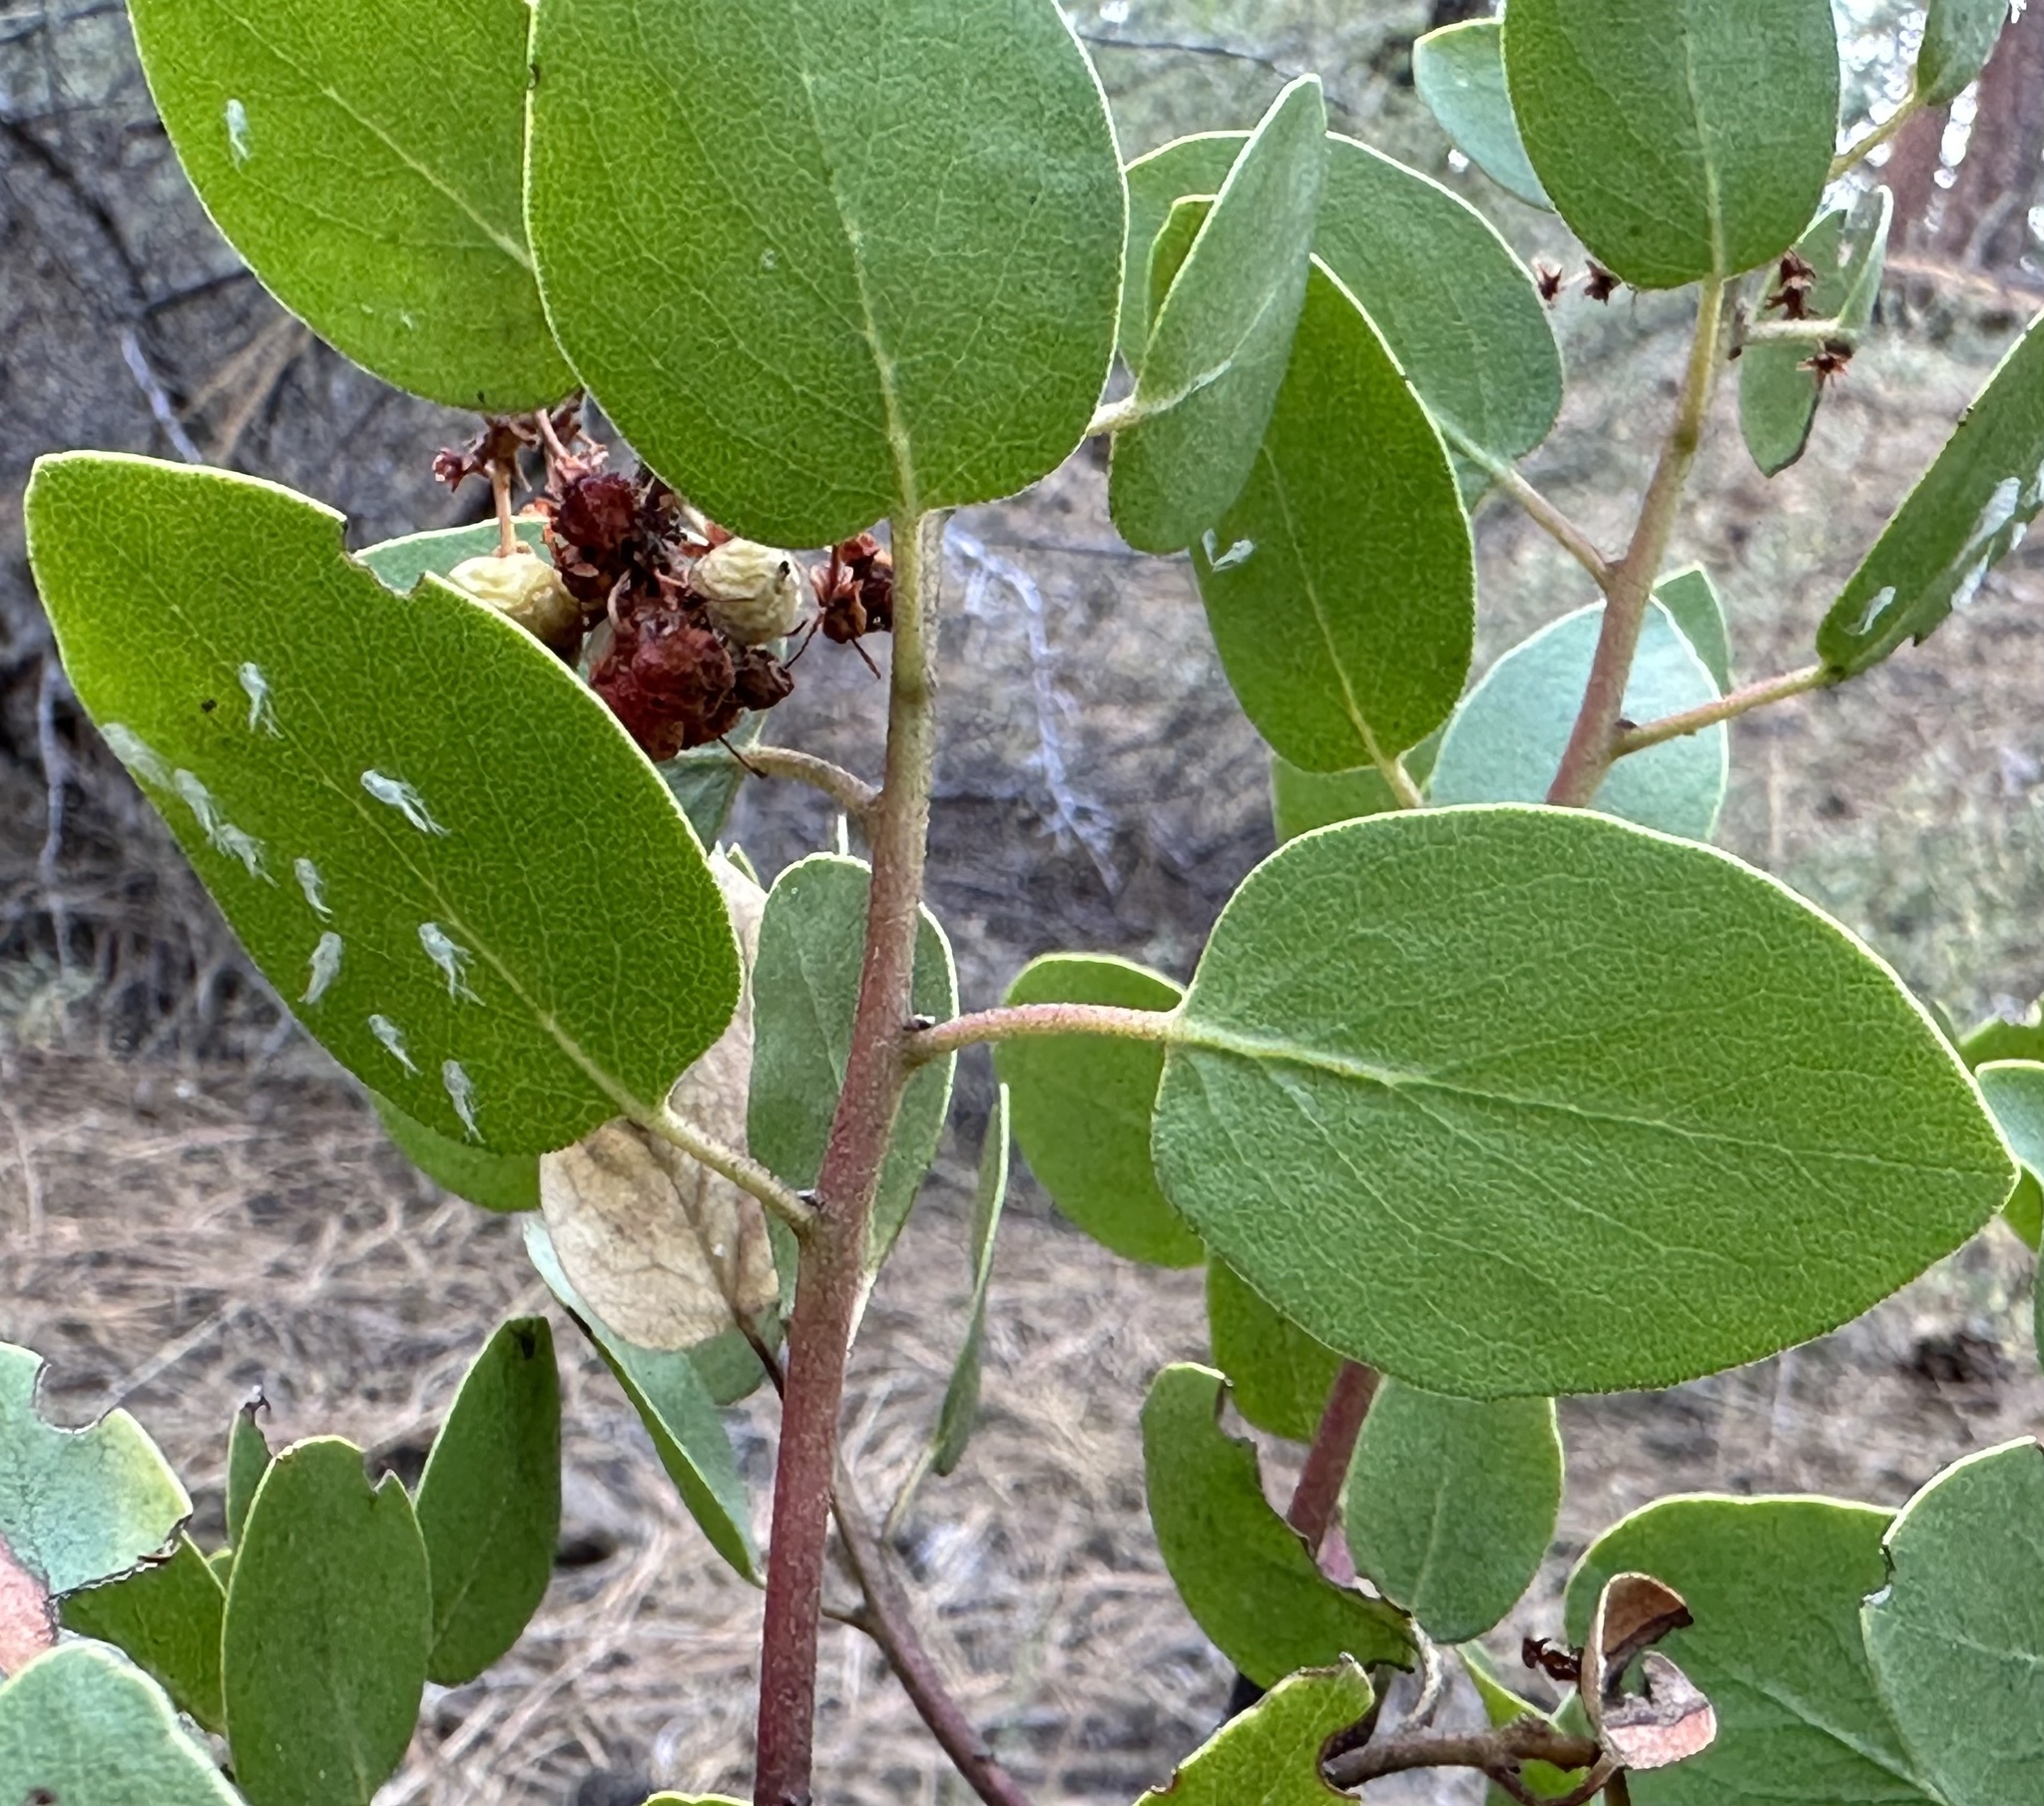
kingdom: Plantae
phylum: Tracheophyta
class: Magnoliopsida
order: Ericales
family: Ericaceae
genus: Arctostaphylos
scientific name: Arctostaphylos patula
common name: Green-leaf manzanita
